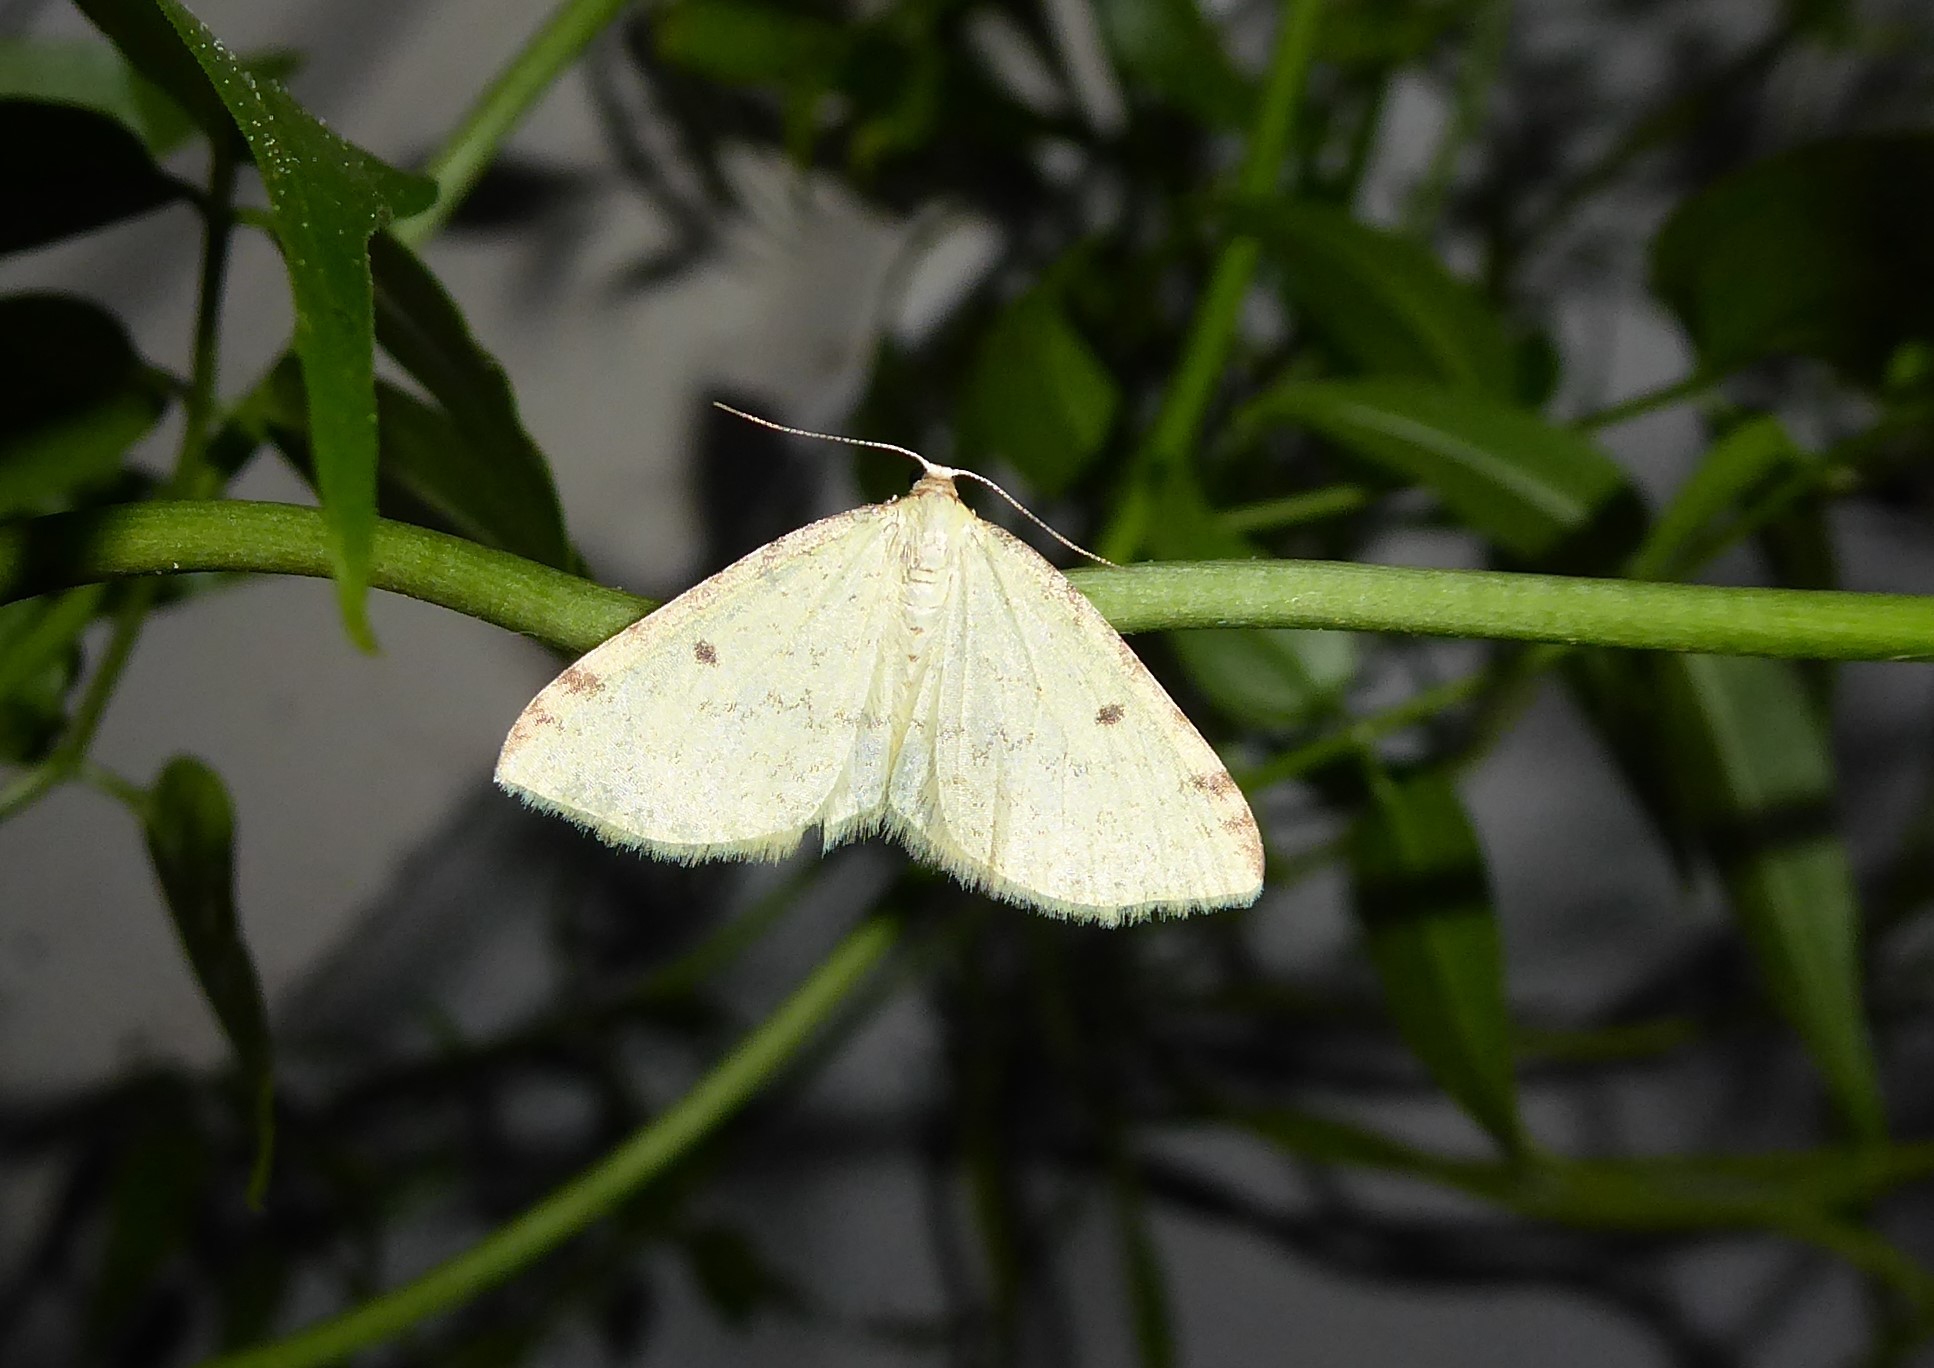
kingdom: Animalia
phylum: Arthropoda
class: Insecta
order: Lepidoptera
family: Geometridae
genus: Epiphryne
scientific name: Epiphryne undosata
